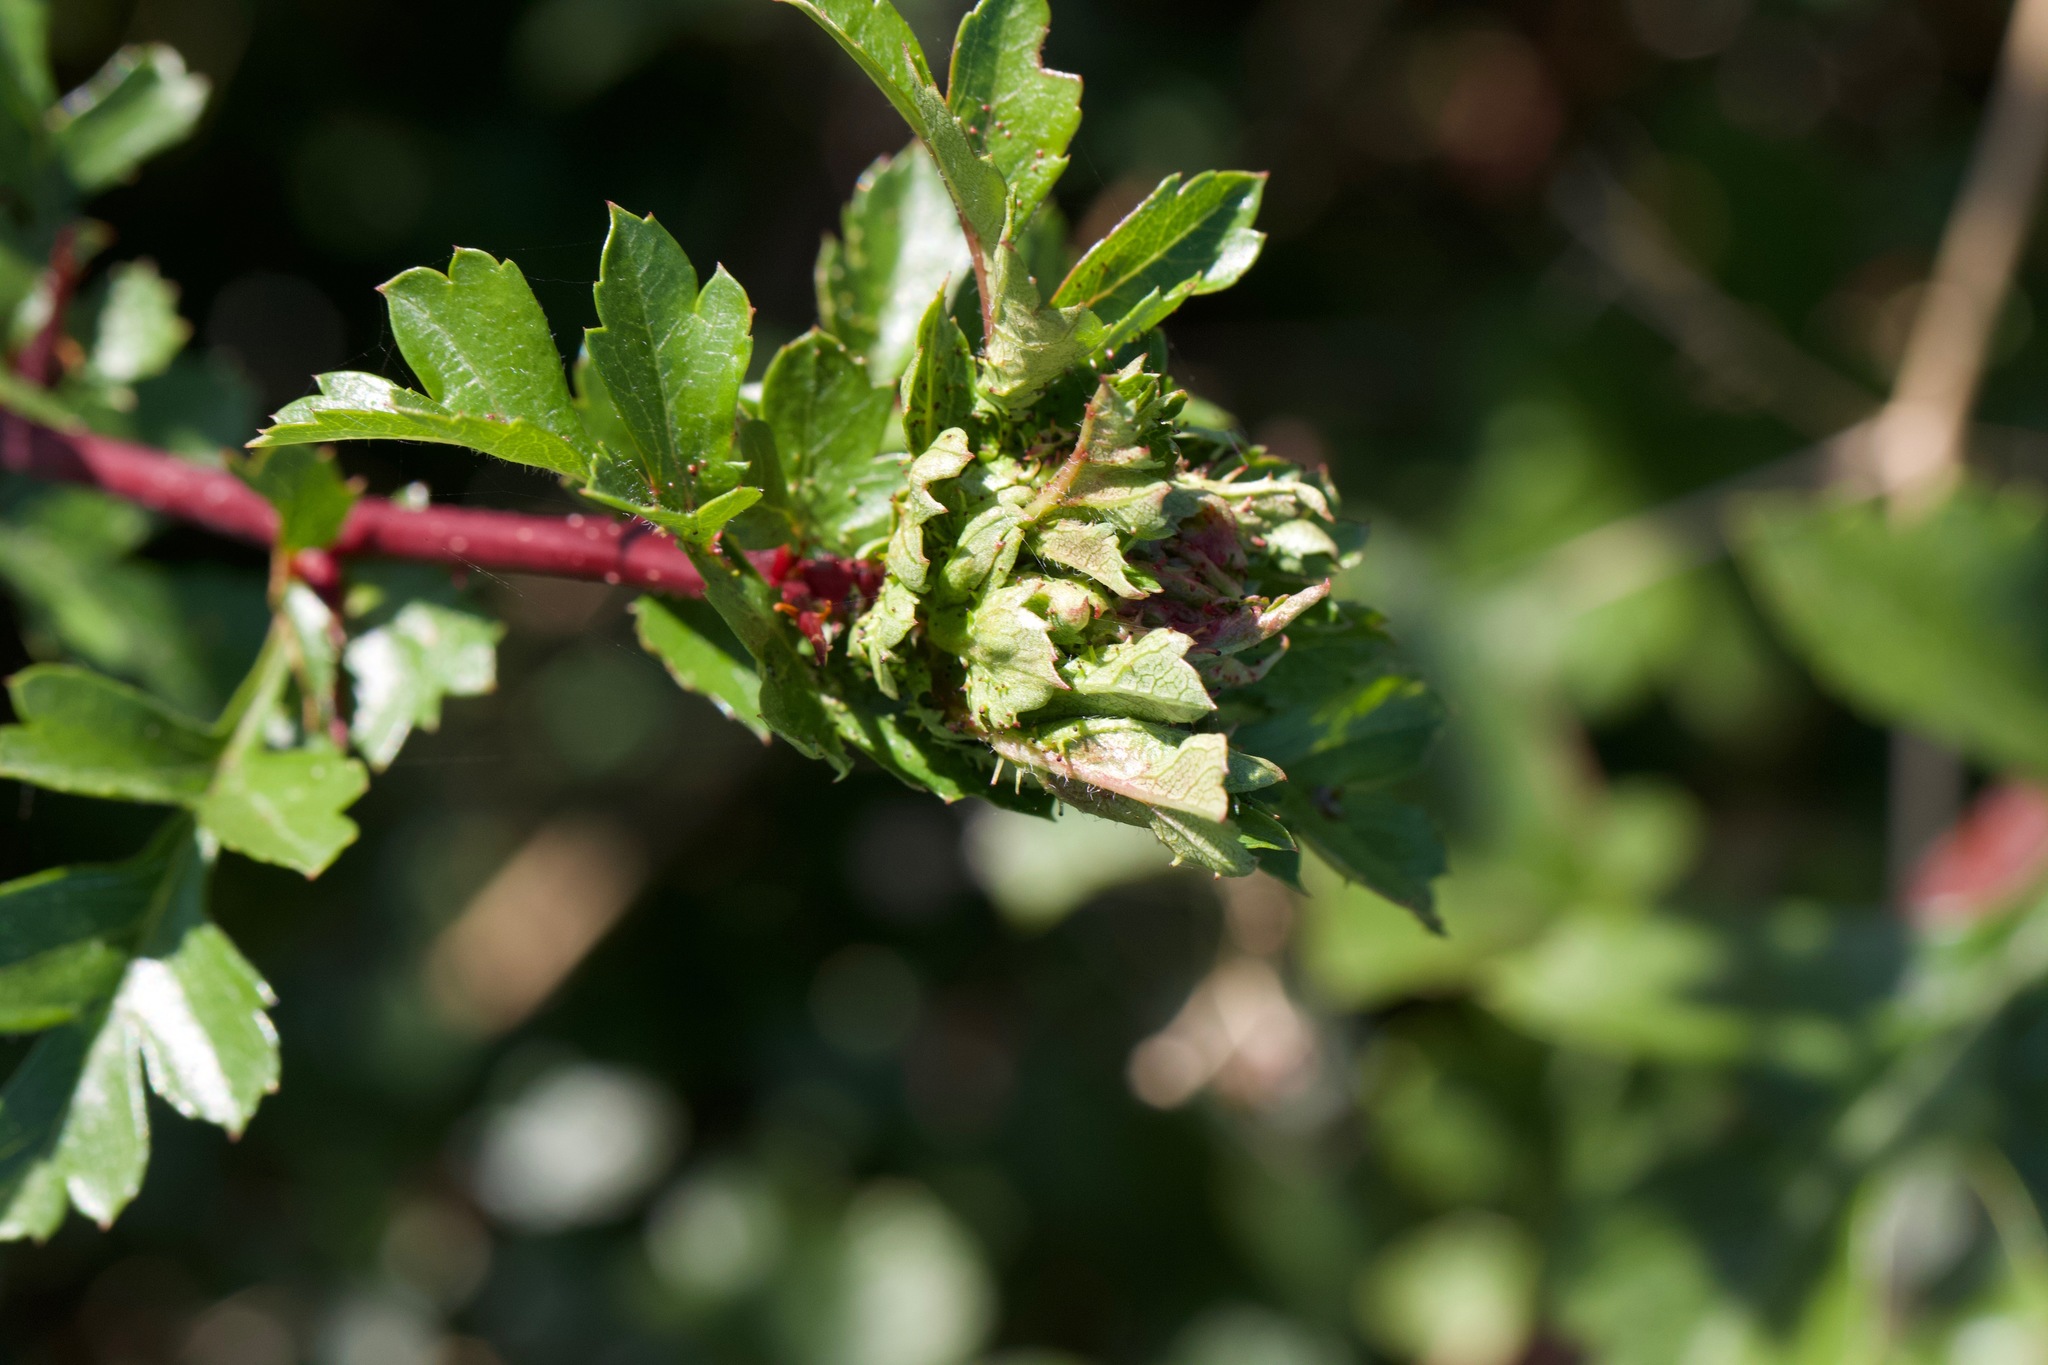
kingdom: Animalia
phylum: Arthropoda
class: Insecta
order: Diptera
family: Cecidomyiidae
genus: Dasineura
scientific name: Dasineura crataegi
